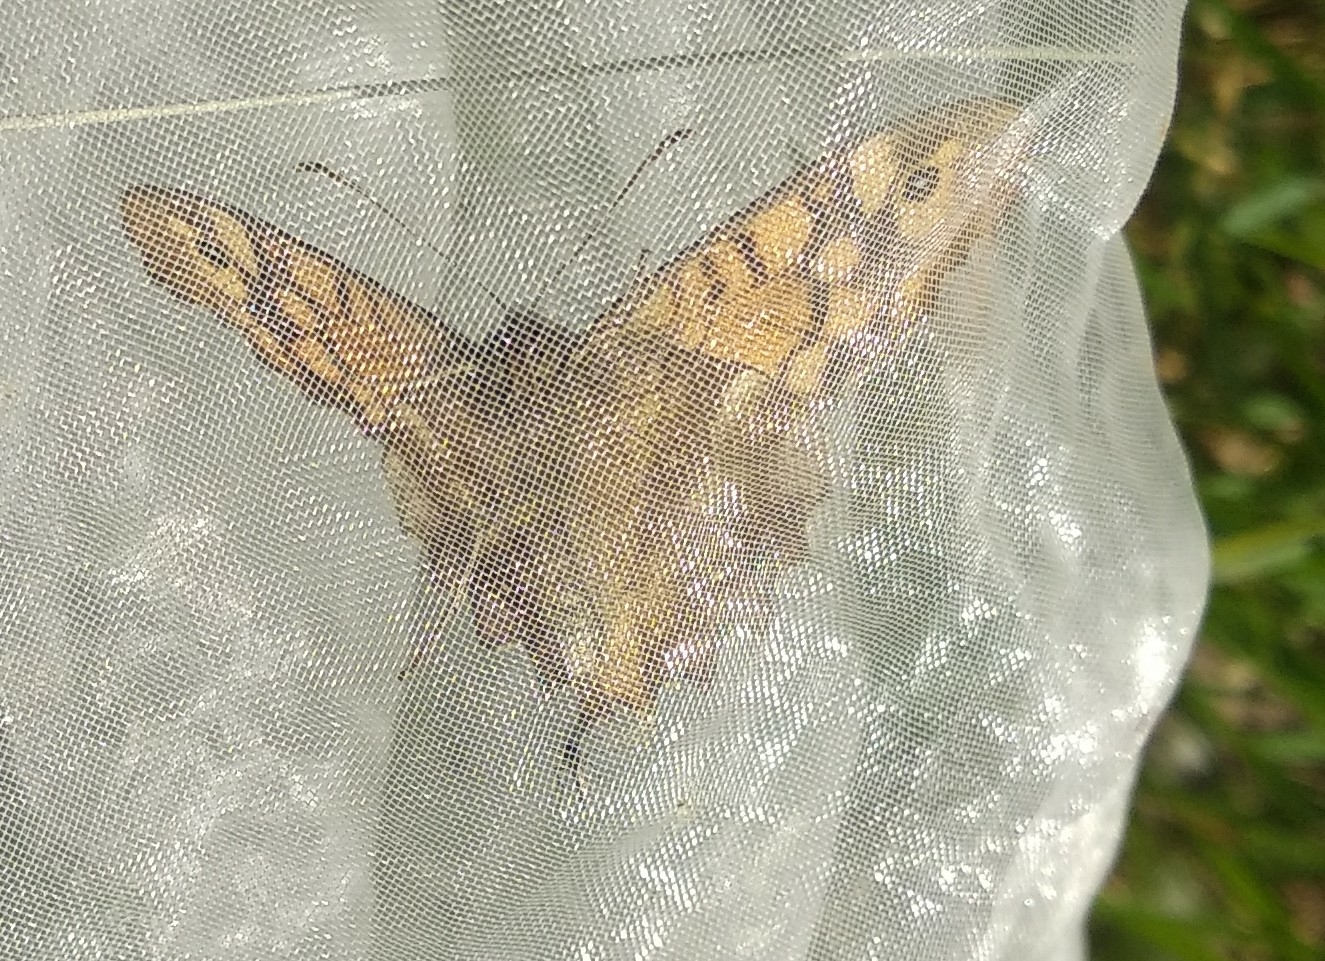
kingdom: Animalia
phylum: Arthropoda
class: Insecta
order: Lepidoptera
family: Nymphalidae
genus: Pararge
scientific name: Pararge aegeria
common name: Speckled wood
